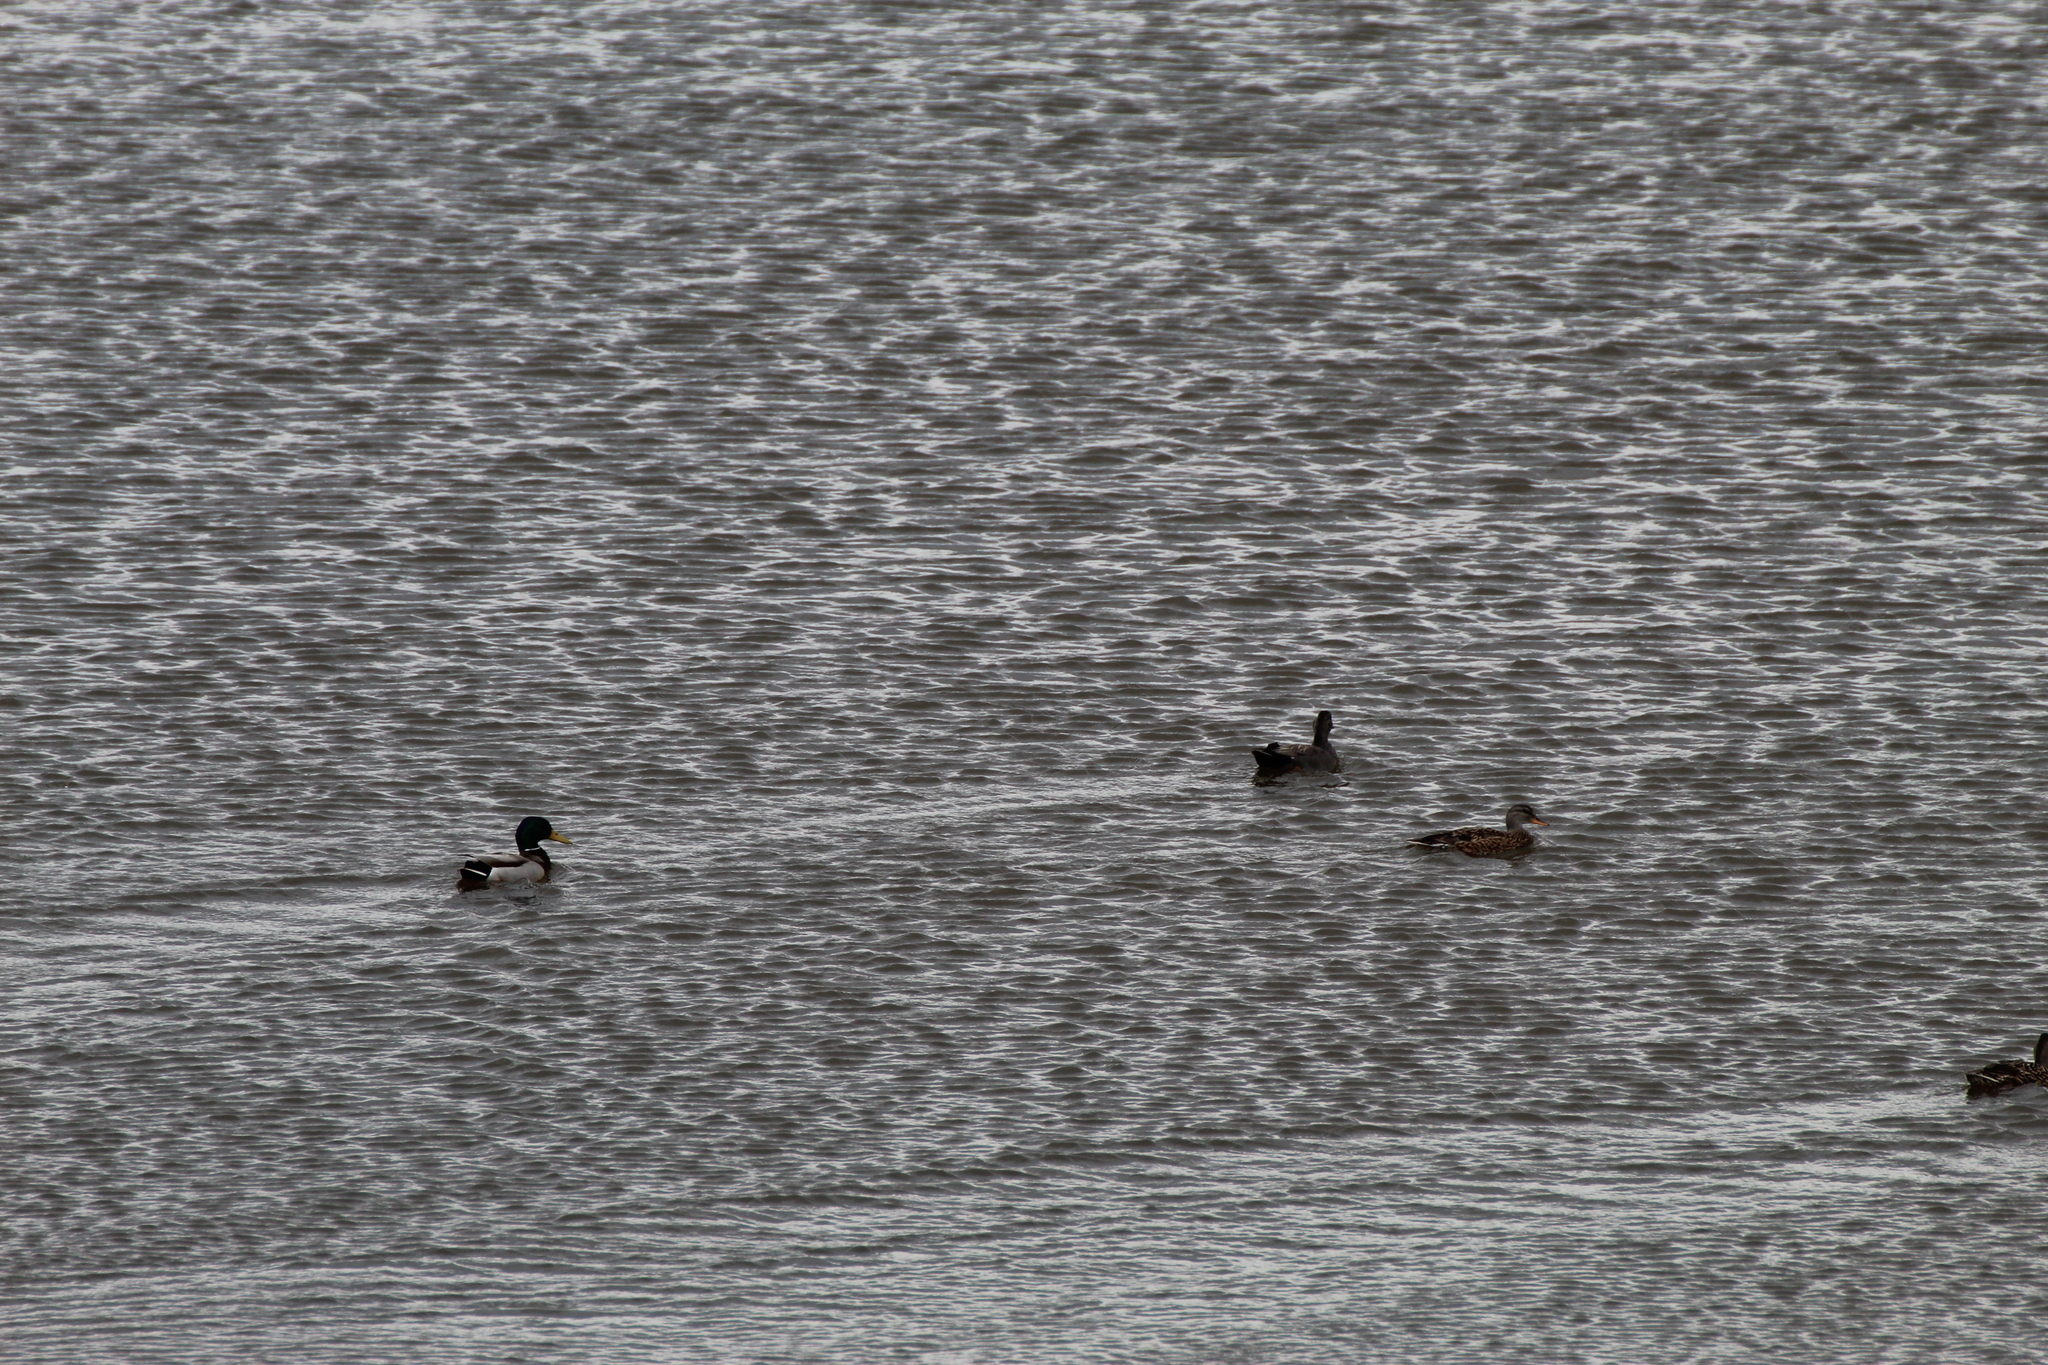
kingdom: Animalia
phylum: Chordata
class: Aves
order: Anseriformes
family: Anatidae
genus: Anas
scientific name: Anas platyrhynchos
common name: Mallard
